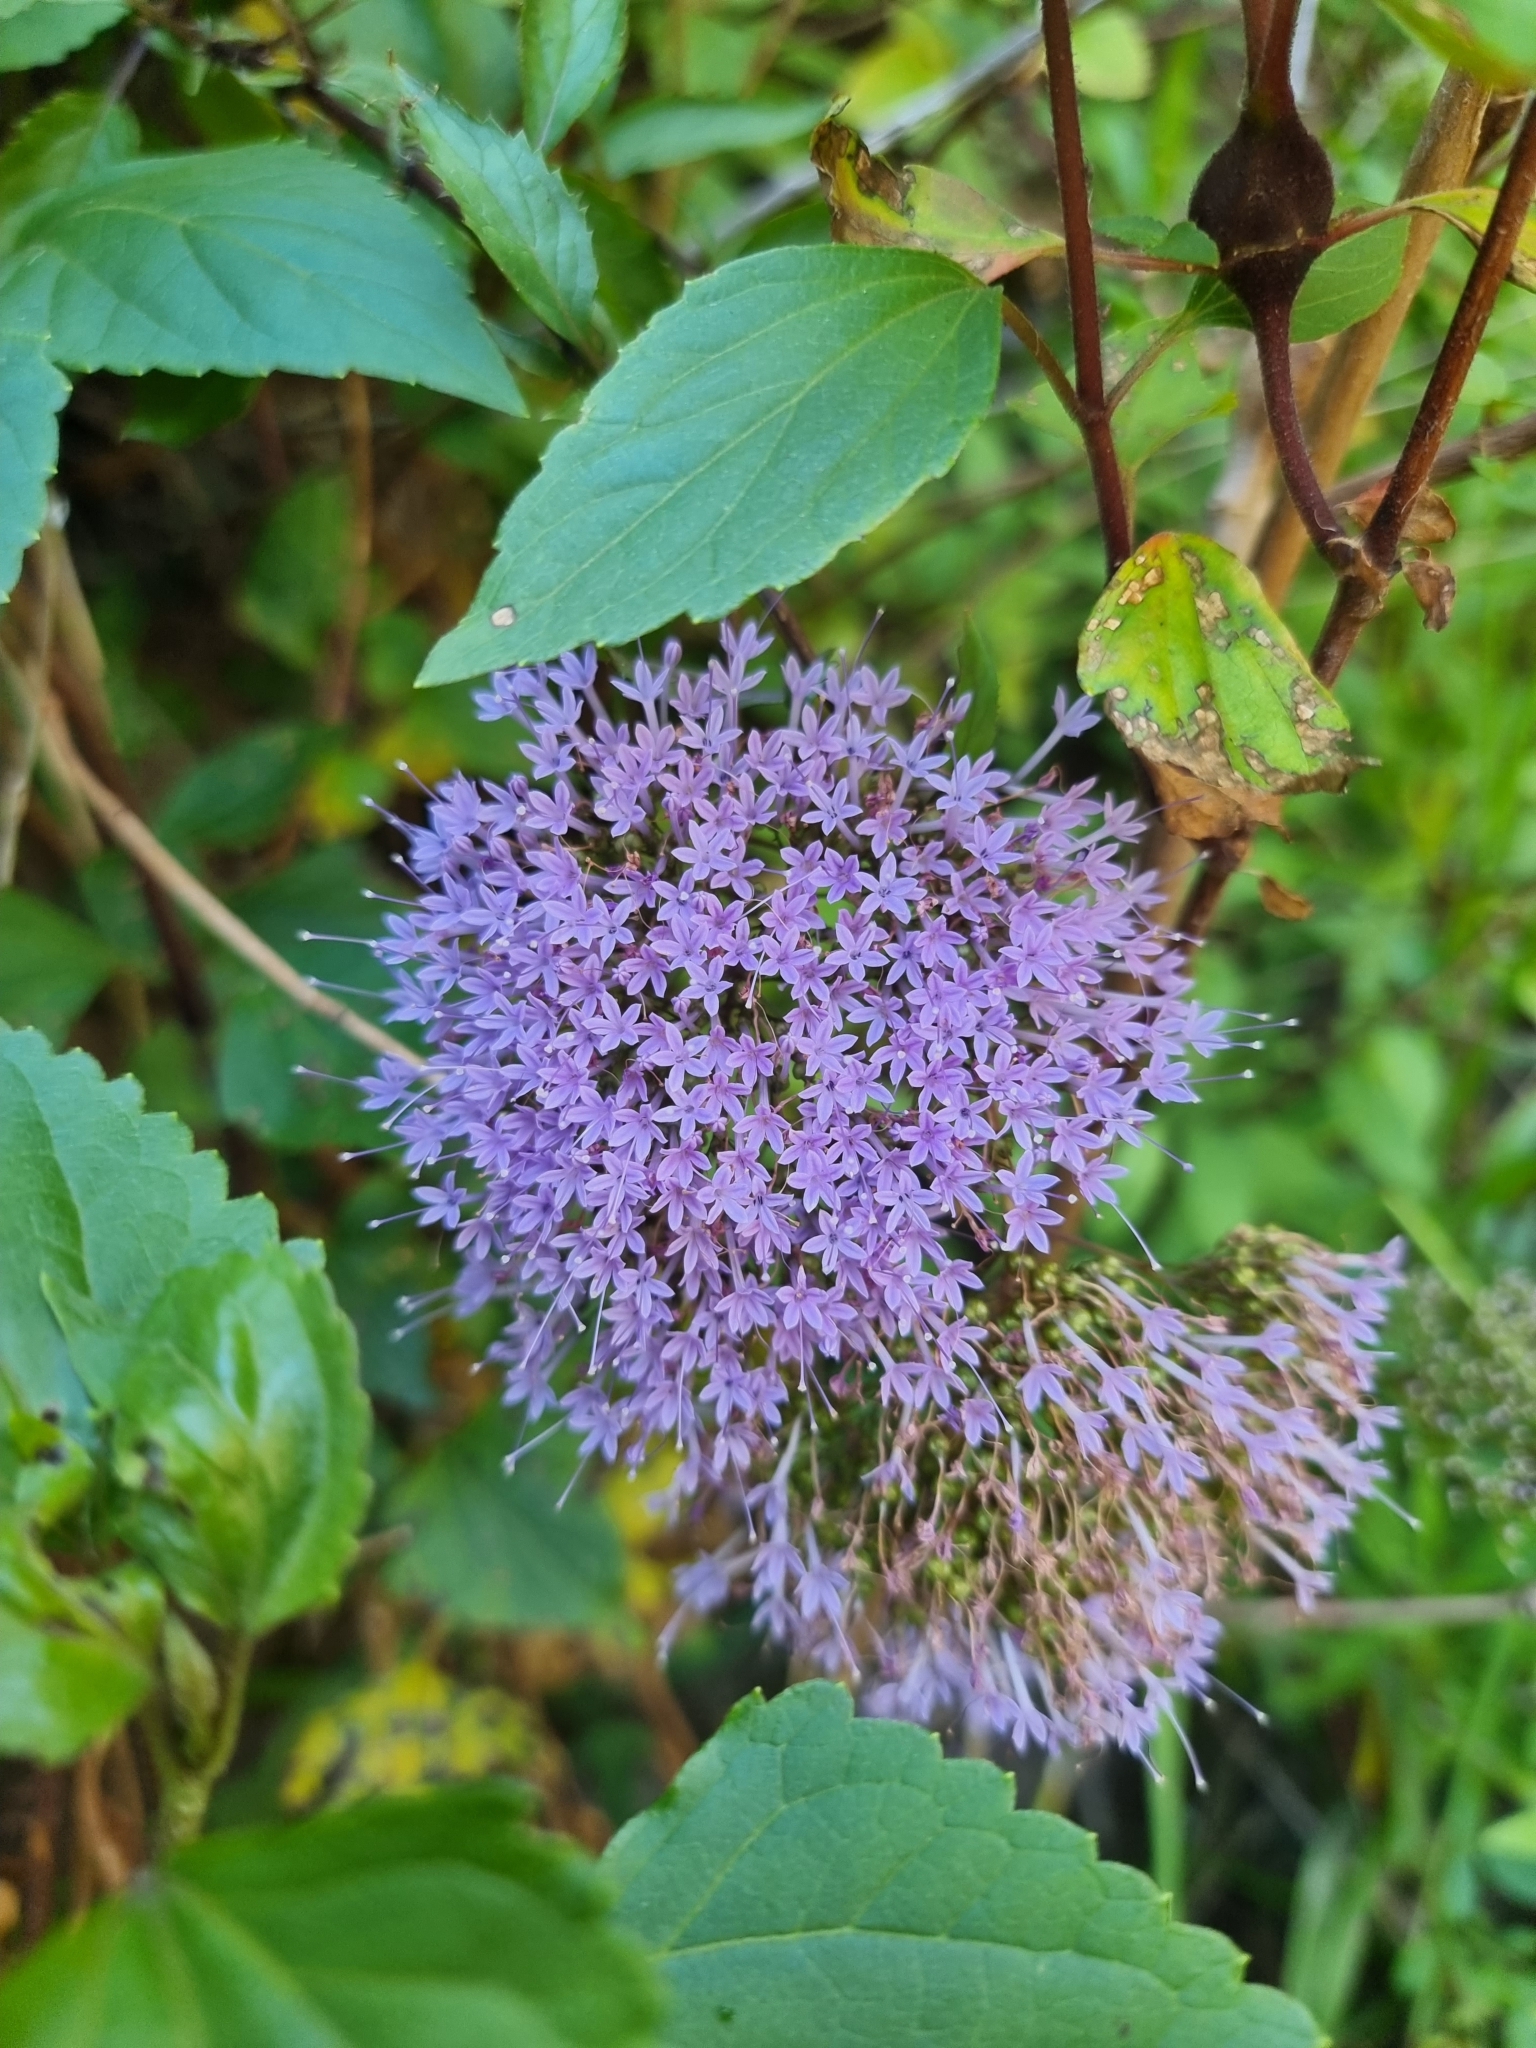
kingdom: Plantae
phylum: Tracheophyta
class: Magnoliopsida
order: Asterales
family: Campanulaceae
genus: Trachelium
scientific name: Trachelium caeruleum
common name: Throatwort
